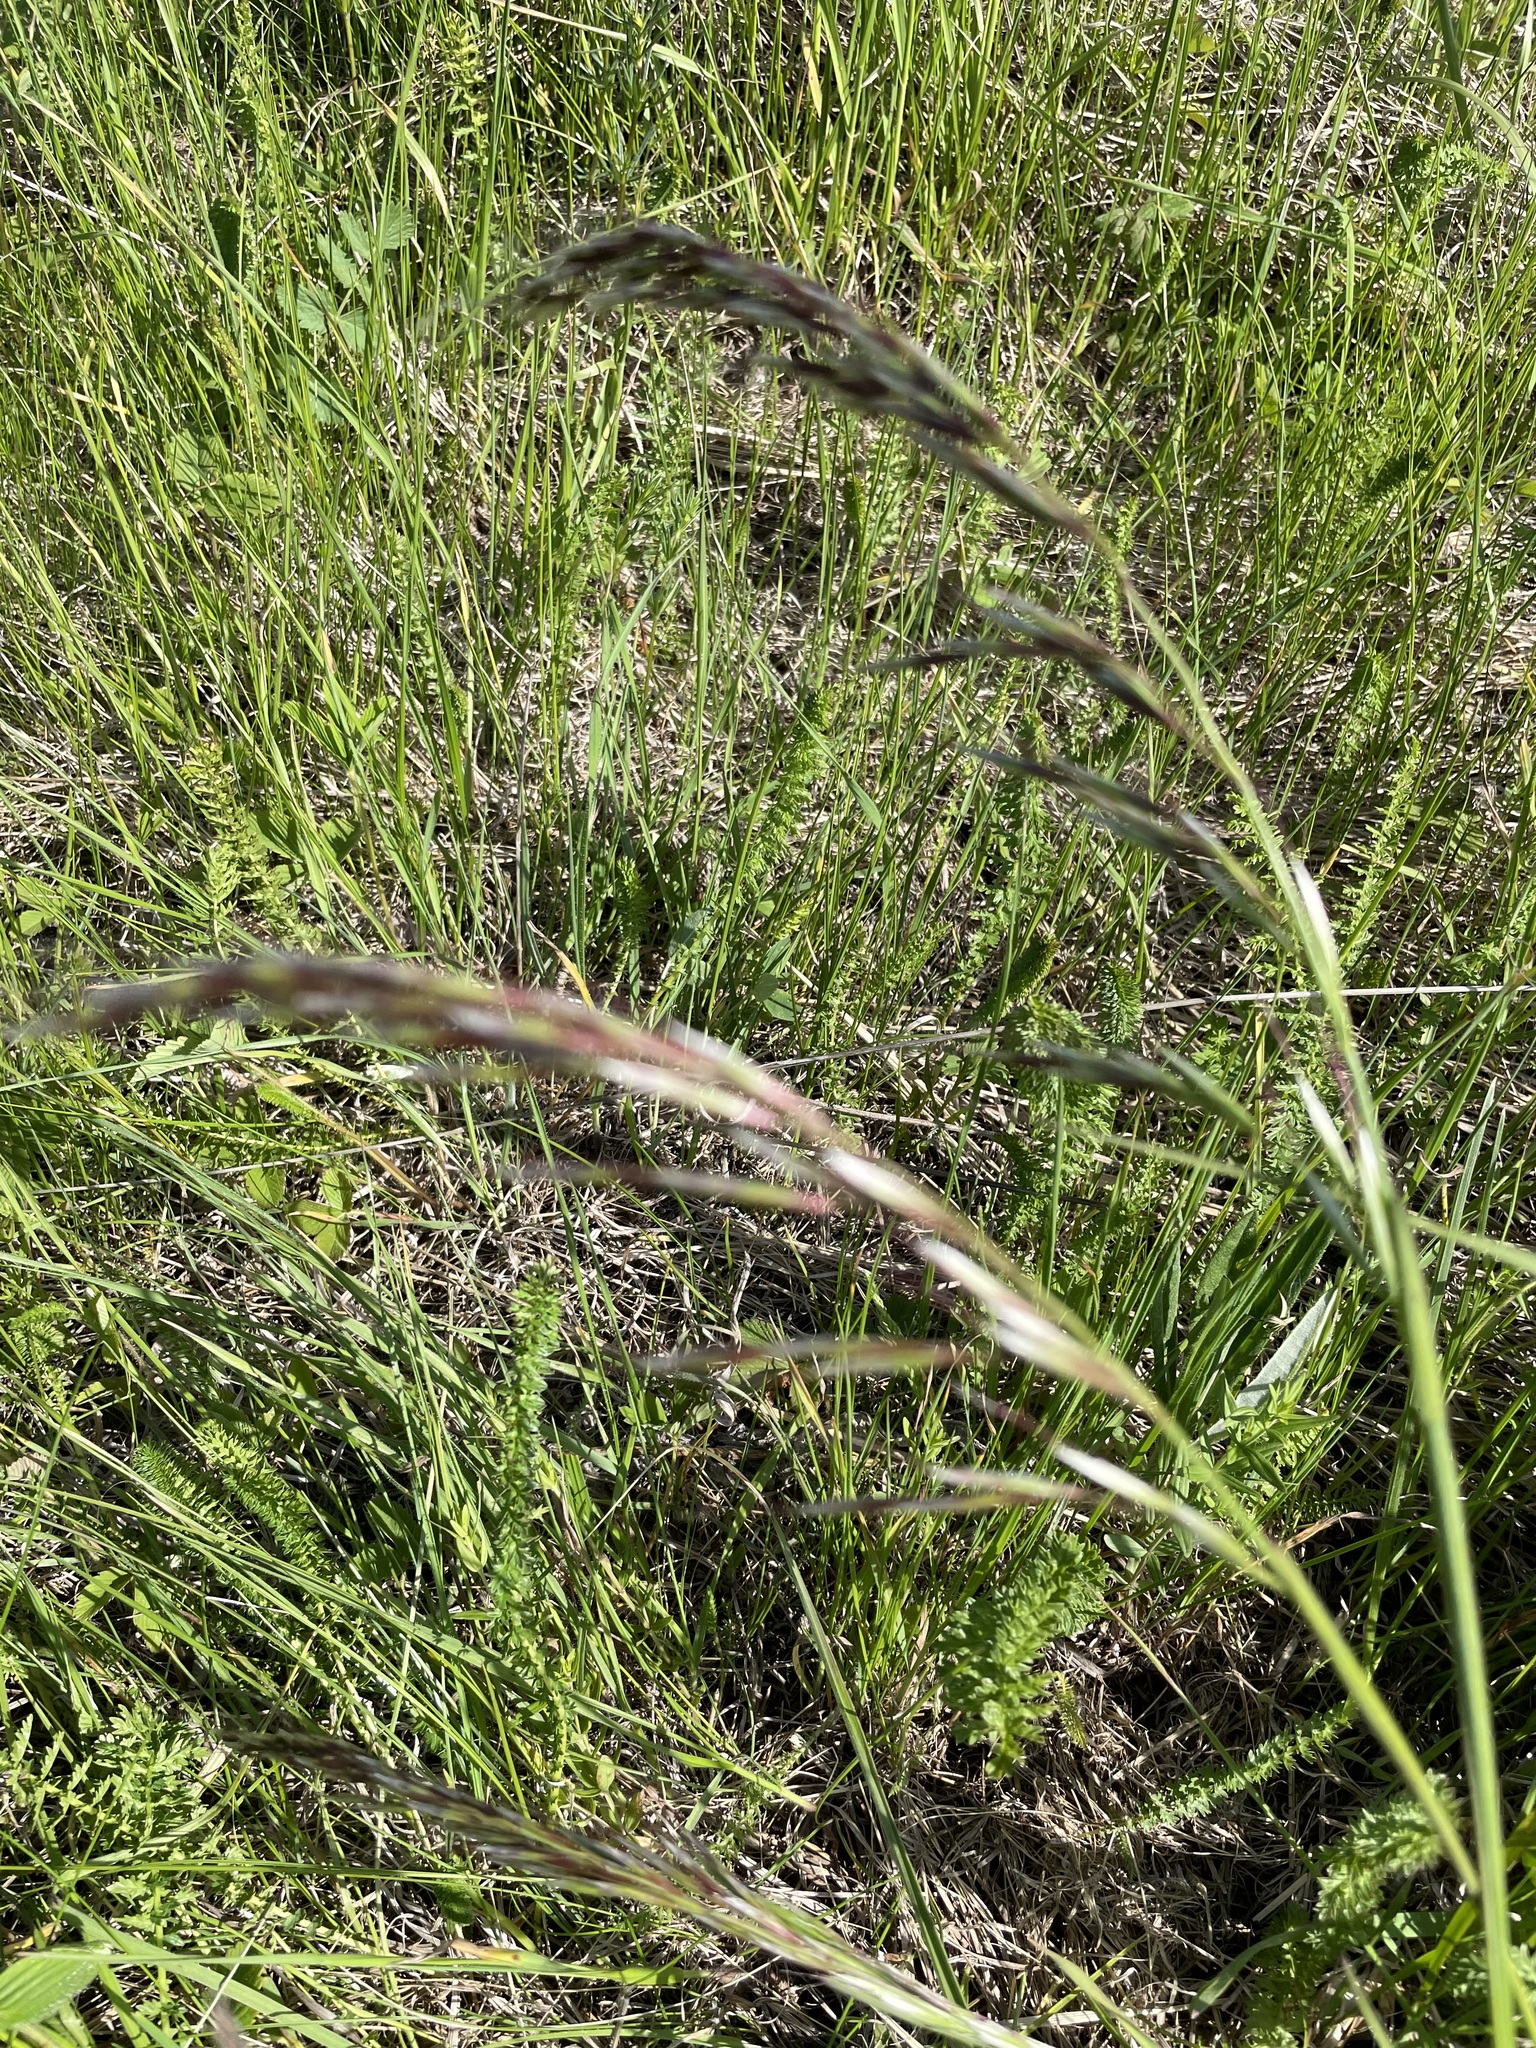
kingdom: Plantae
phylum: Tracheophyta
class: Liliopsida
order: Poales
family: Poaceae
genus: Avenula
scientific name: Avenula pubescens
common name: Downy alpine oatgrass
